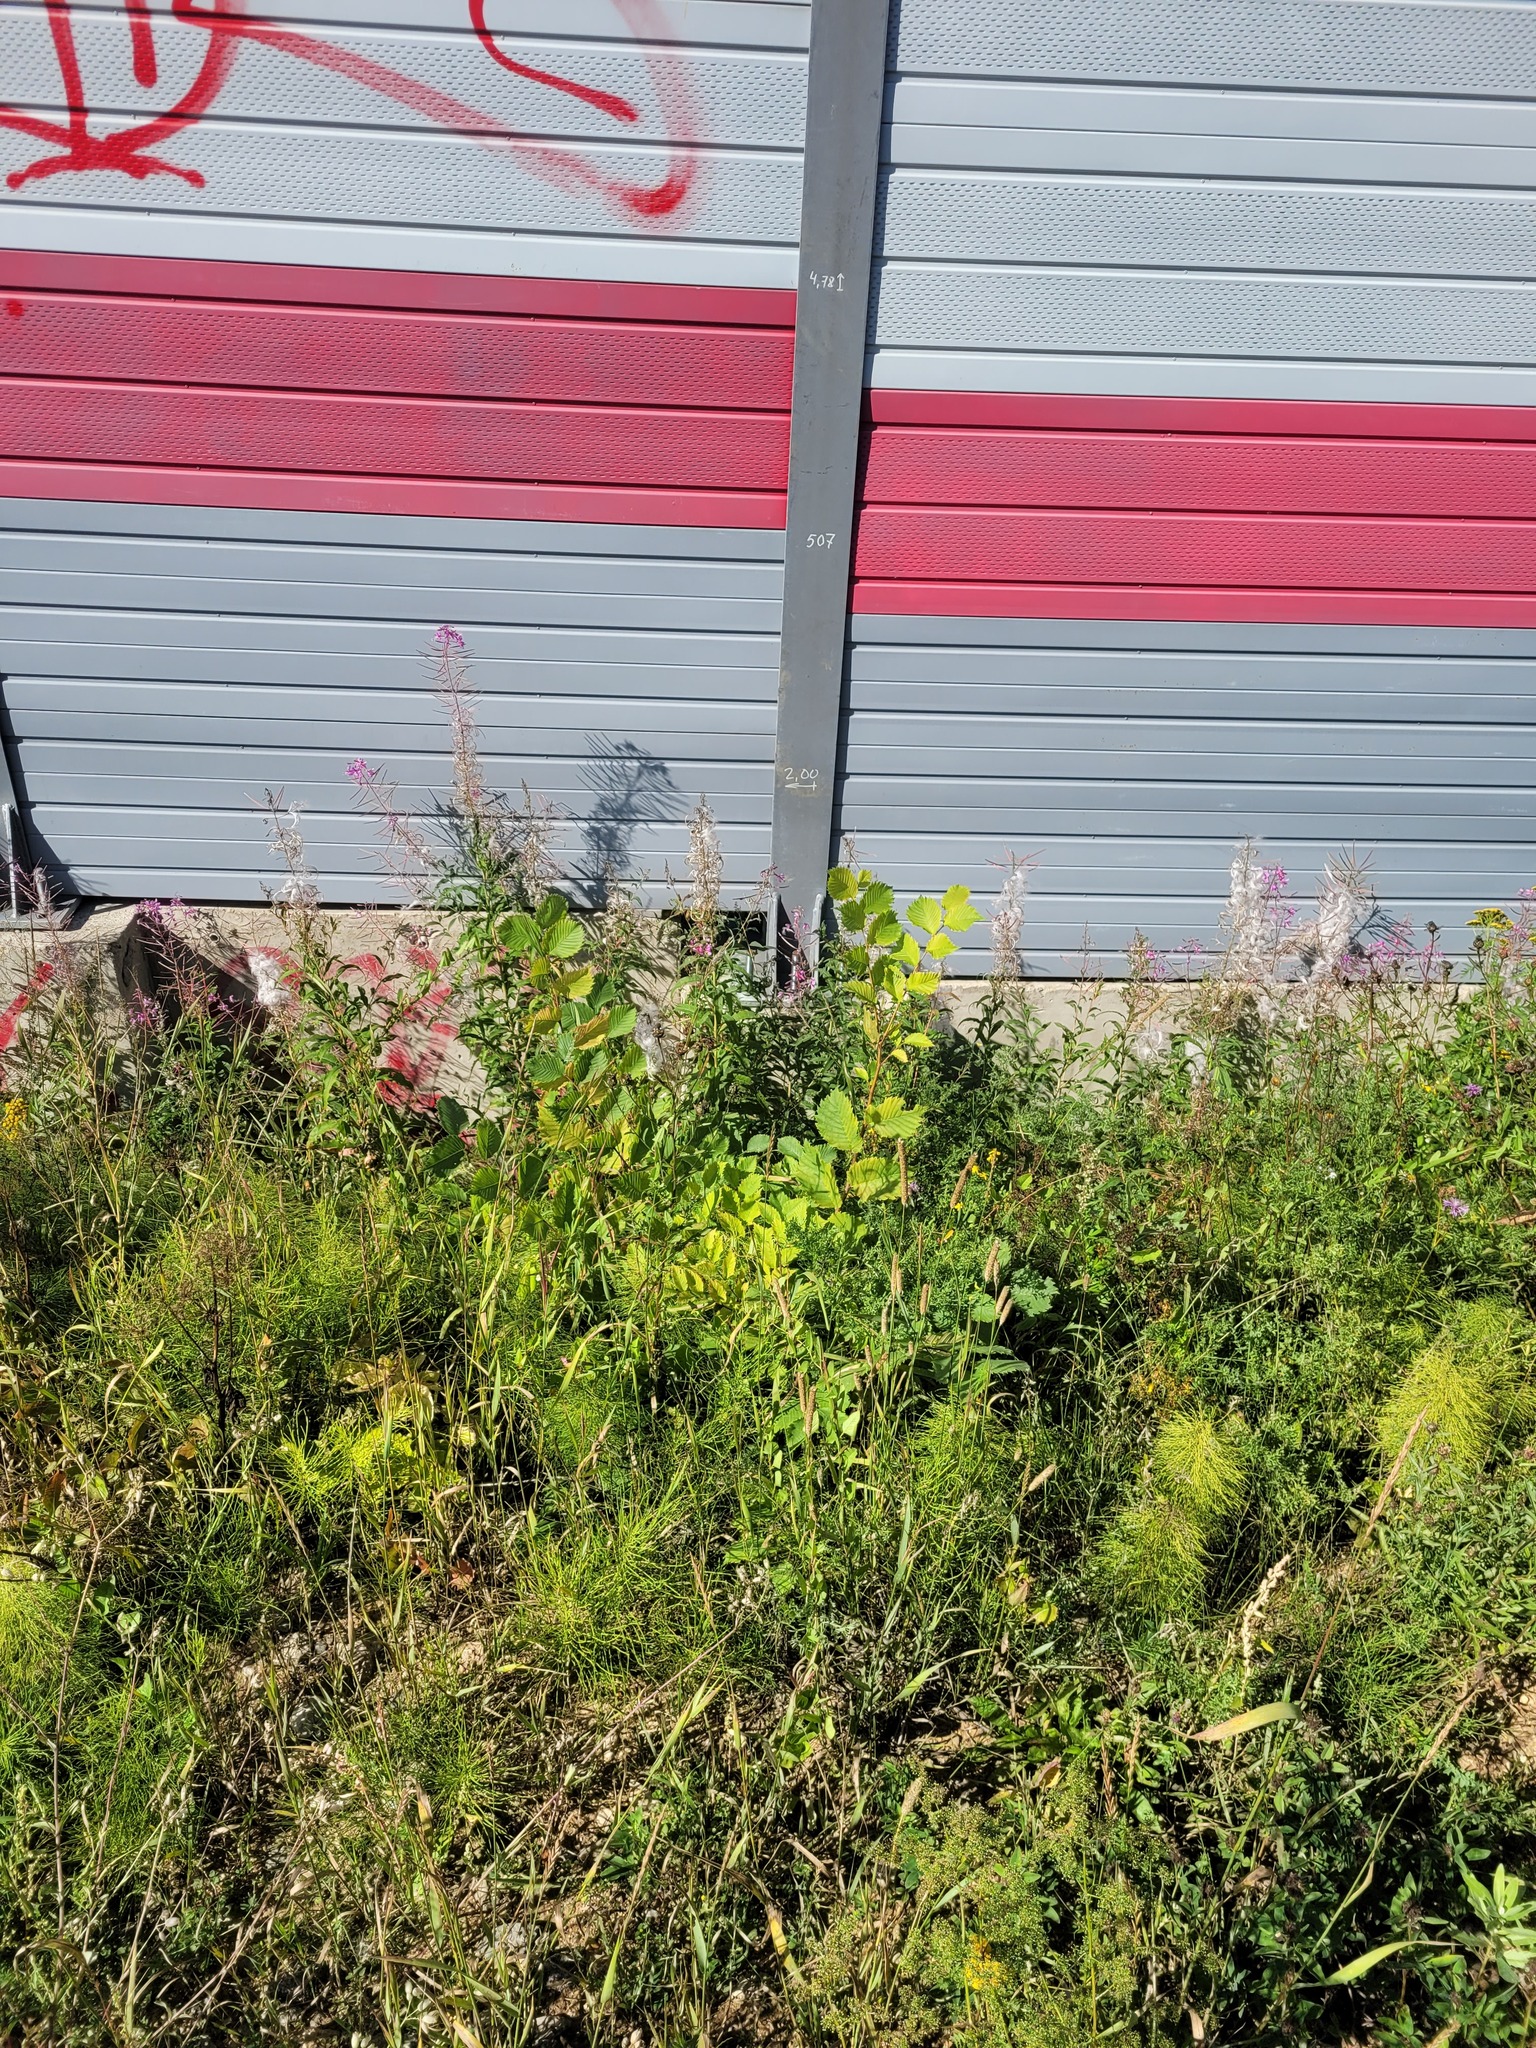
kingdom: Plantae
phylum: Tracheophyta
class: Magnoliopsida
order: Rosales
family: Ulmaceae
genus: Ulmus
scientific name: Ulmus laevis
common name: European white-elm
